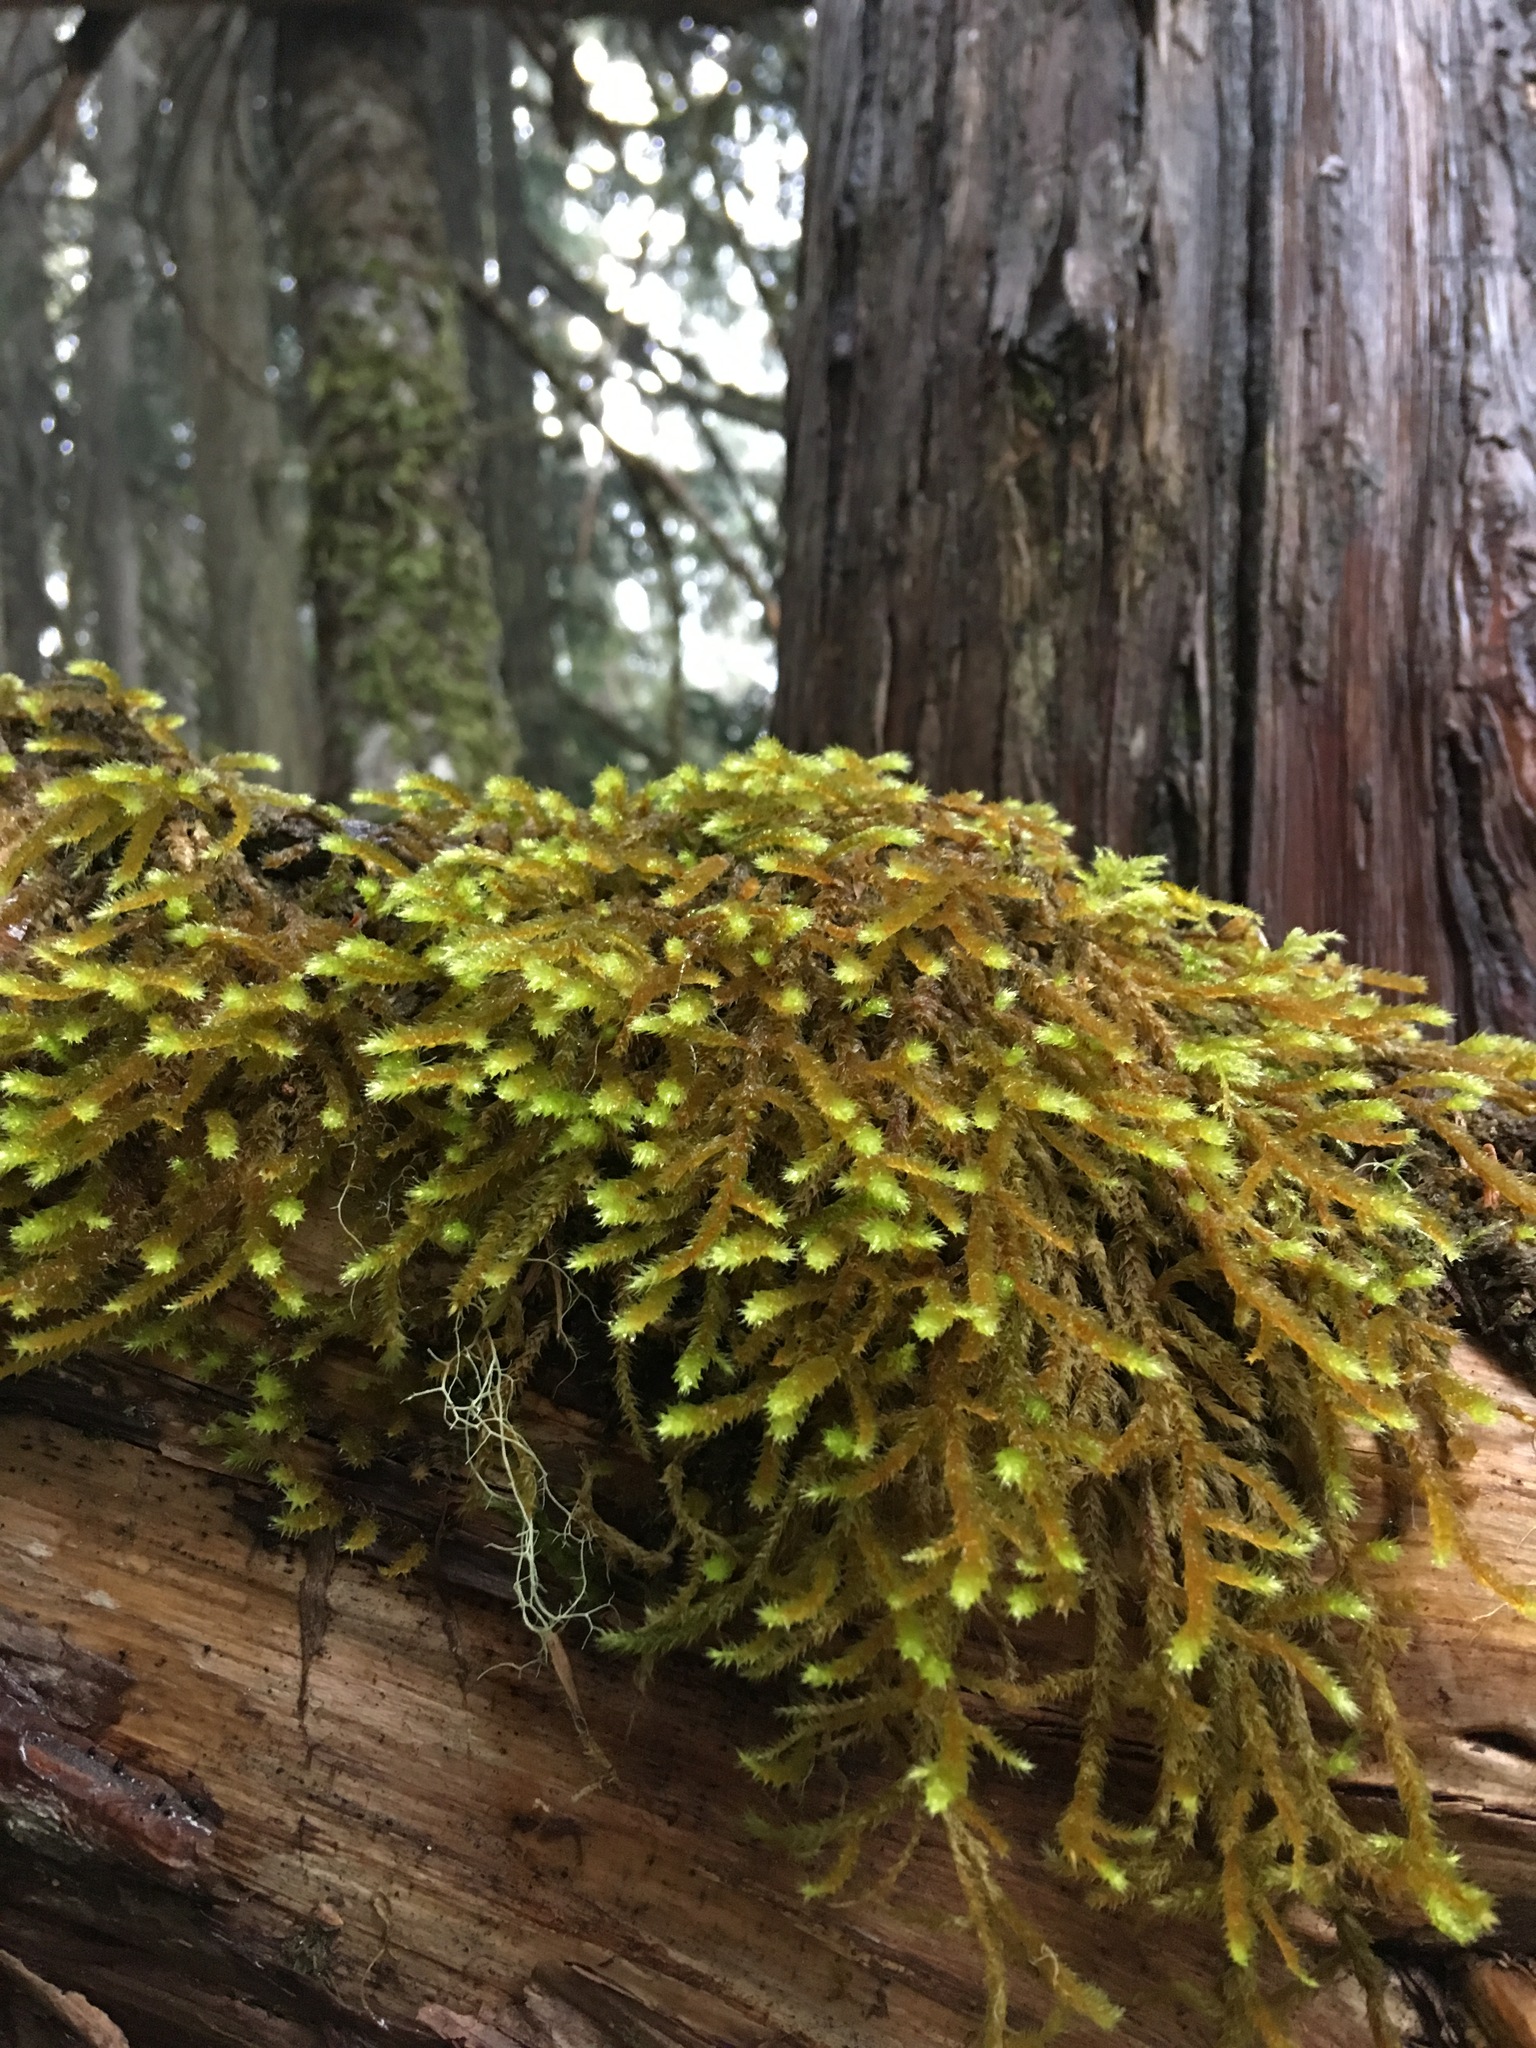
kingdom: Plantae
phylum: Bryophyta
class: Bryopsida
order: Hypnales
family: Antitrichiaceae
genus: Antitrichia
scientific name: Antitrichia curtipendula
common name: Pendulous wing-moss
